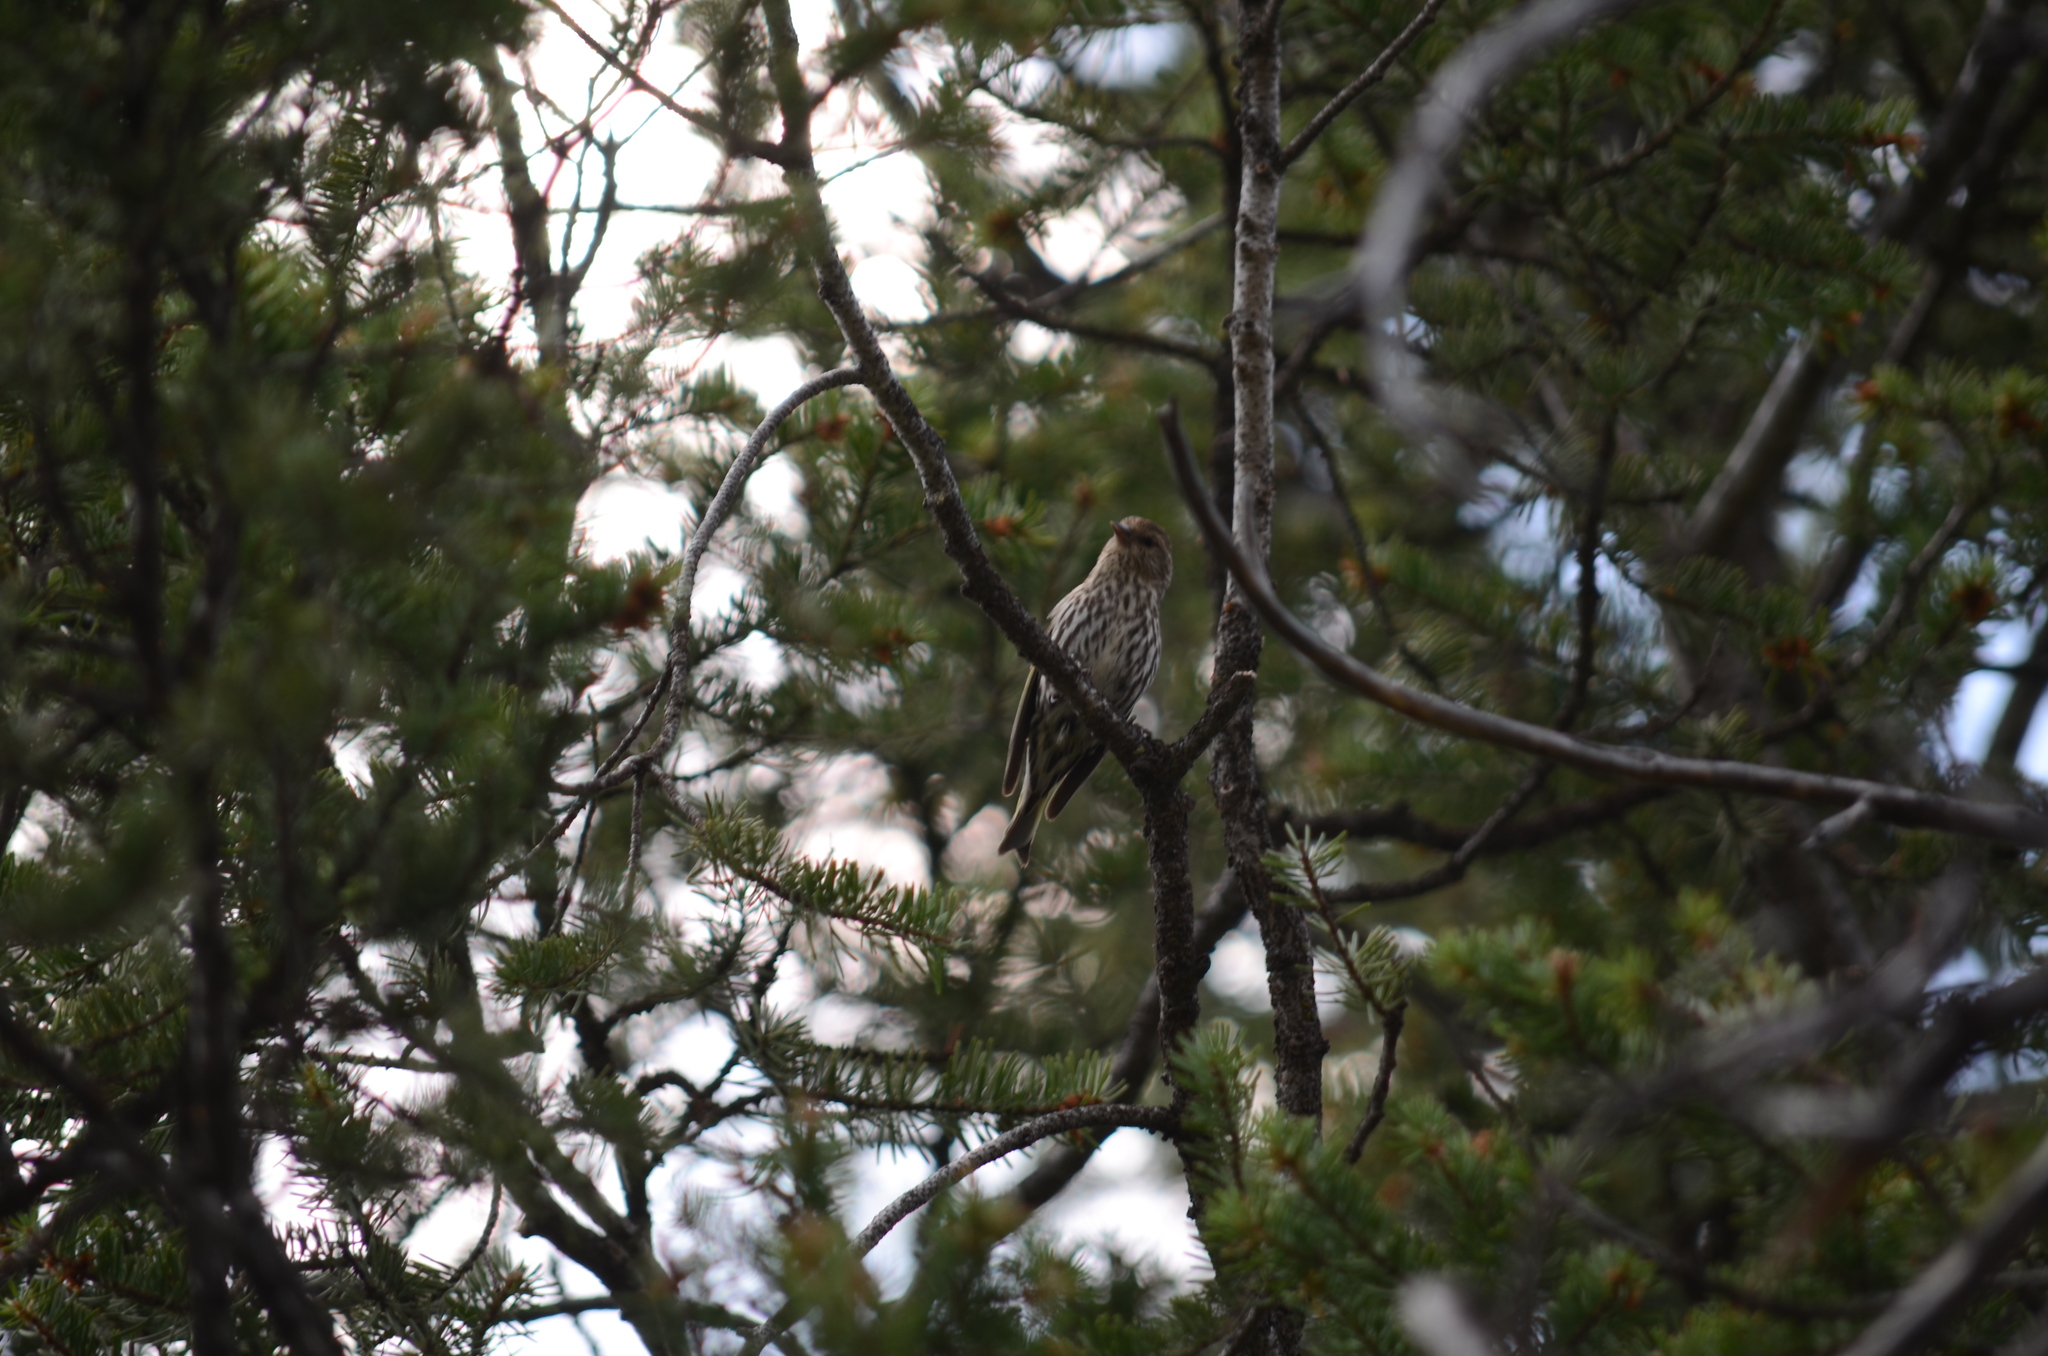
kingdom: Animalia
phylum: Chordata
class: Aves
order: Passeriformes
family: Fringillidae
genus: Spinus
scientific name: Spinus pinus
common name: Pine siskin
